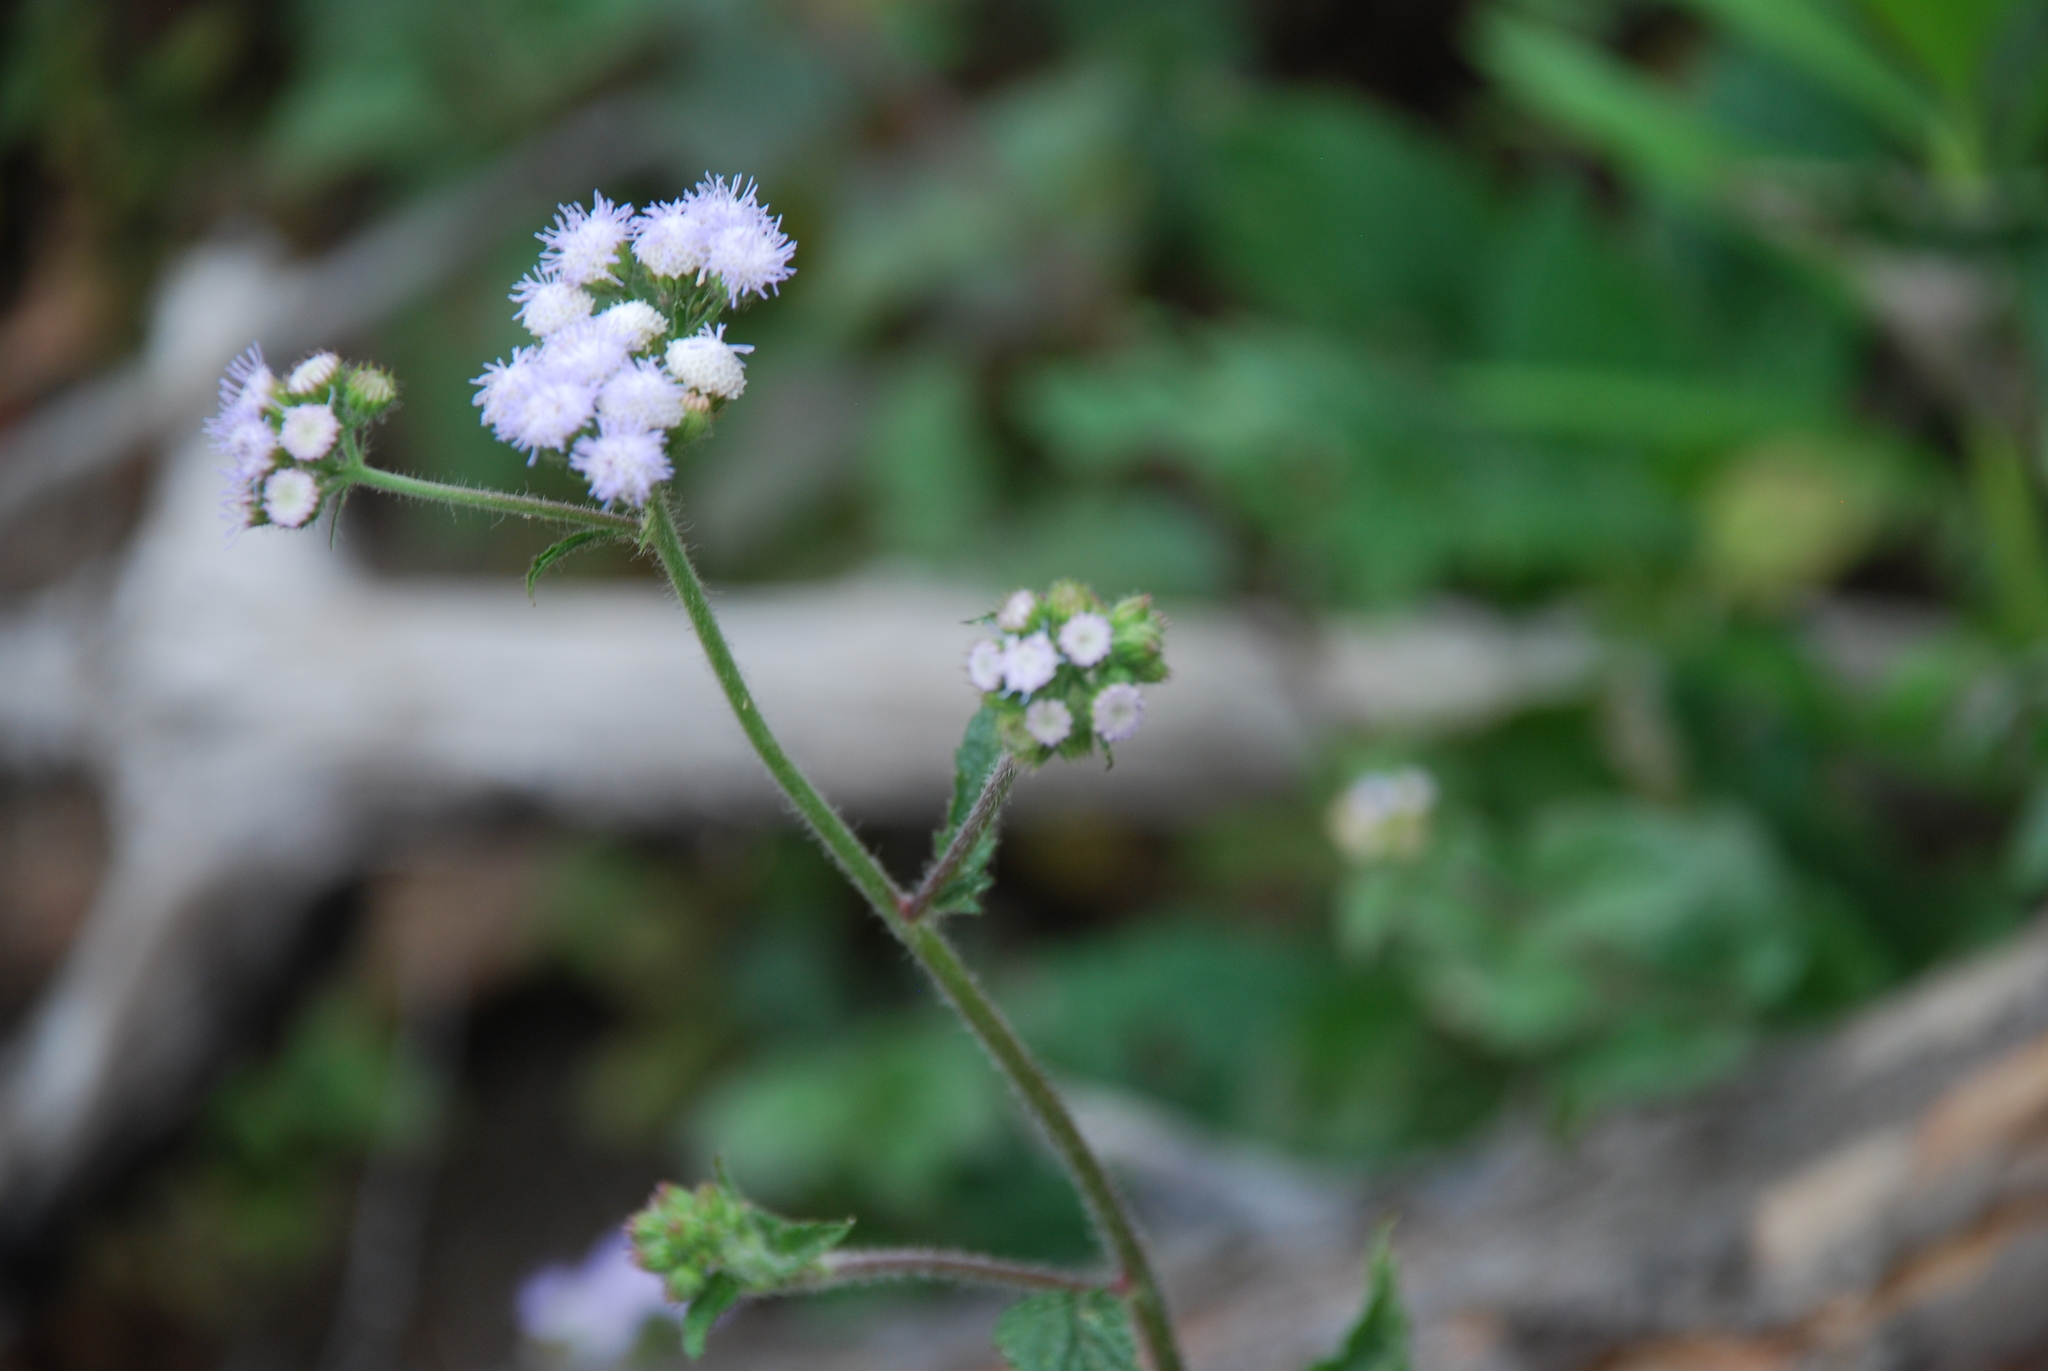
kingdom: Plantae
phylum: Tracheophyta
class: Magnoliopsida
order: Asterales
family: Asteraceae
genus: Ageratum
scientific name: Ageratum houstonianum
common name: Bluemink
